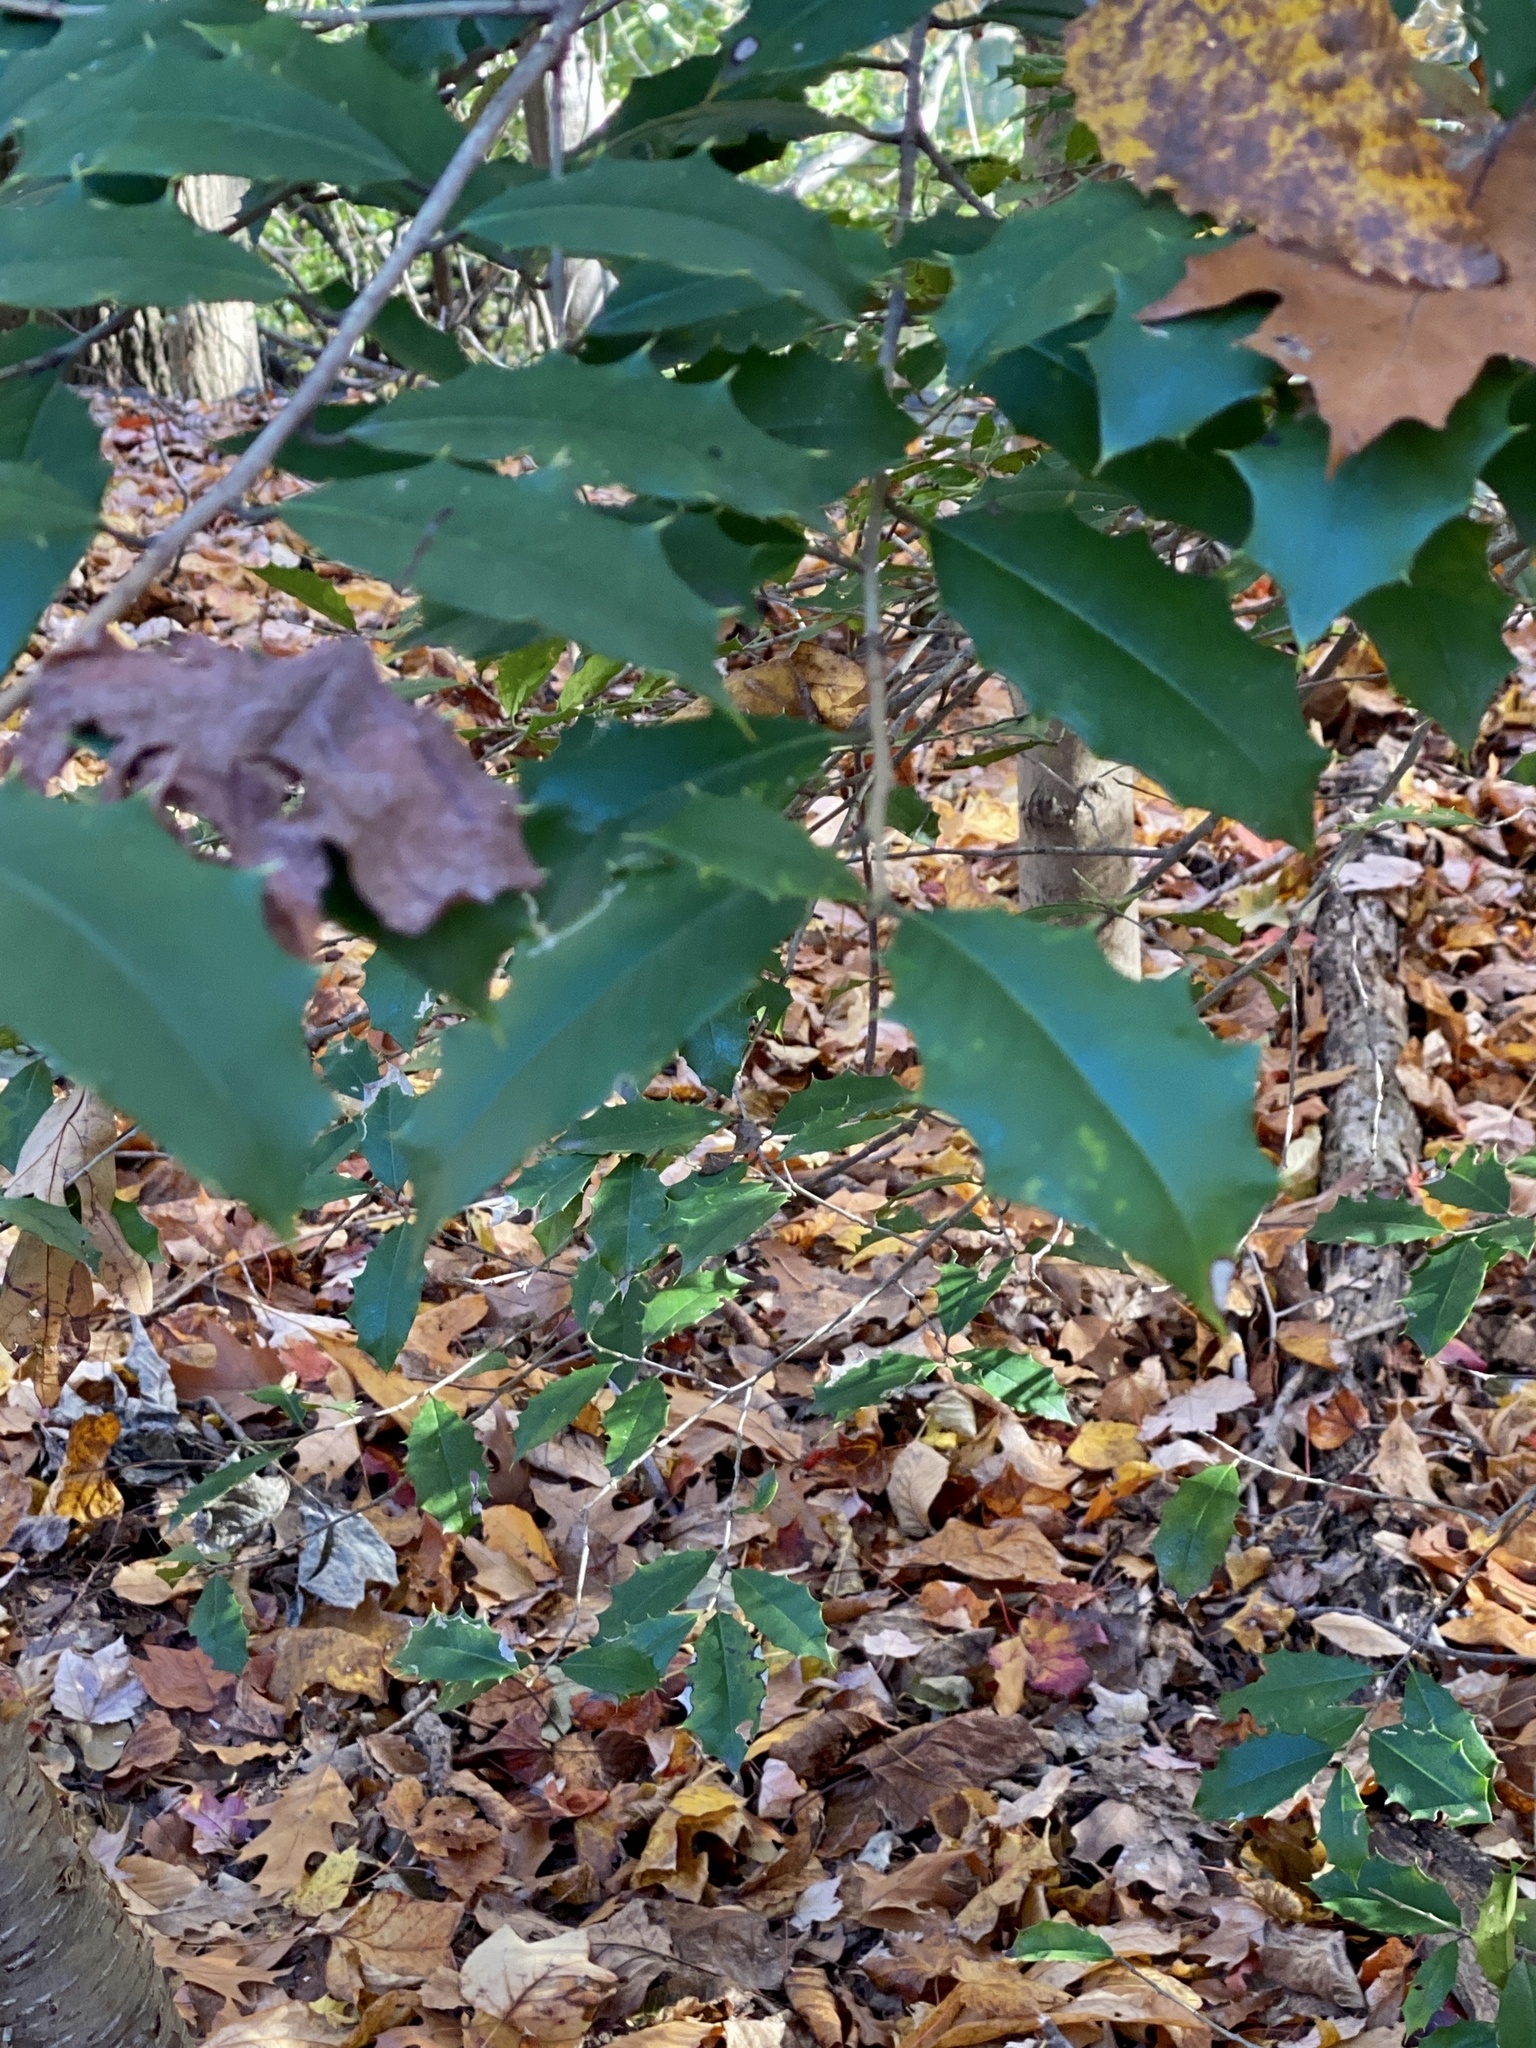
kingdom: Plantae
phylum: Tracheophyta
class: Magnoliopsida
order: Aquifoliales
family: Aquifoliaceae
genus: Ilex
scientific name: Ilex opaca
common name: American holly
